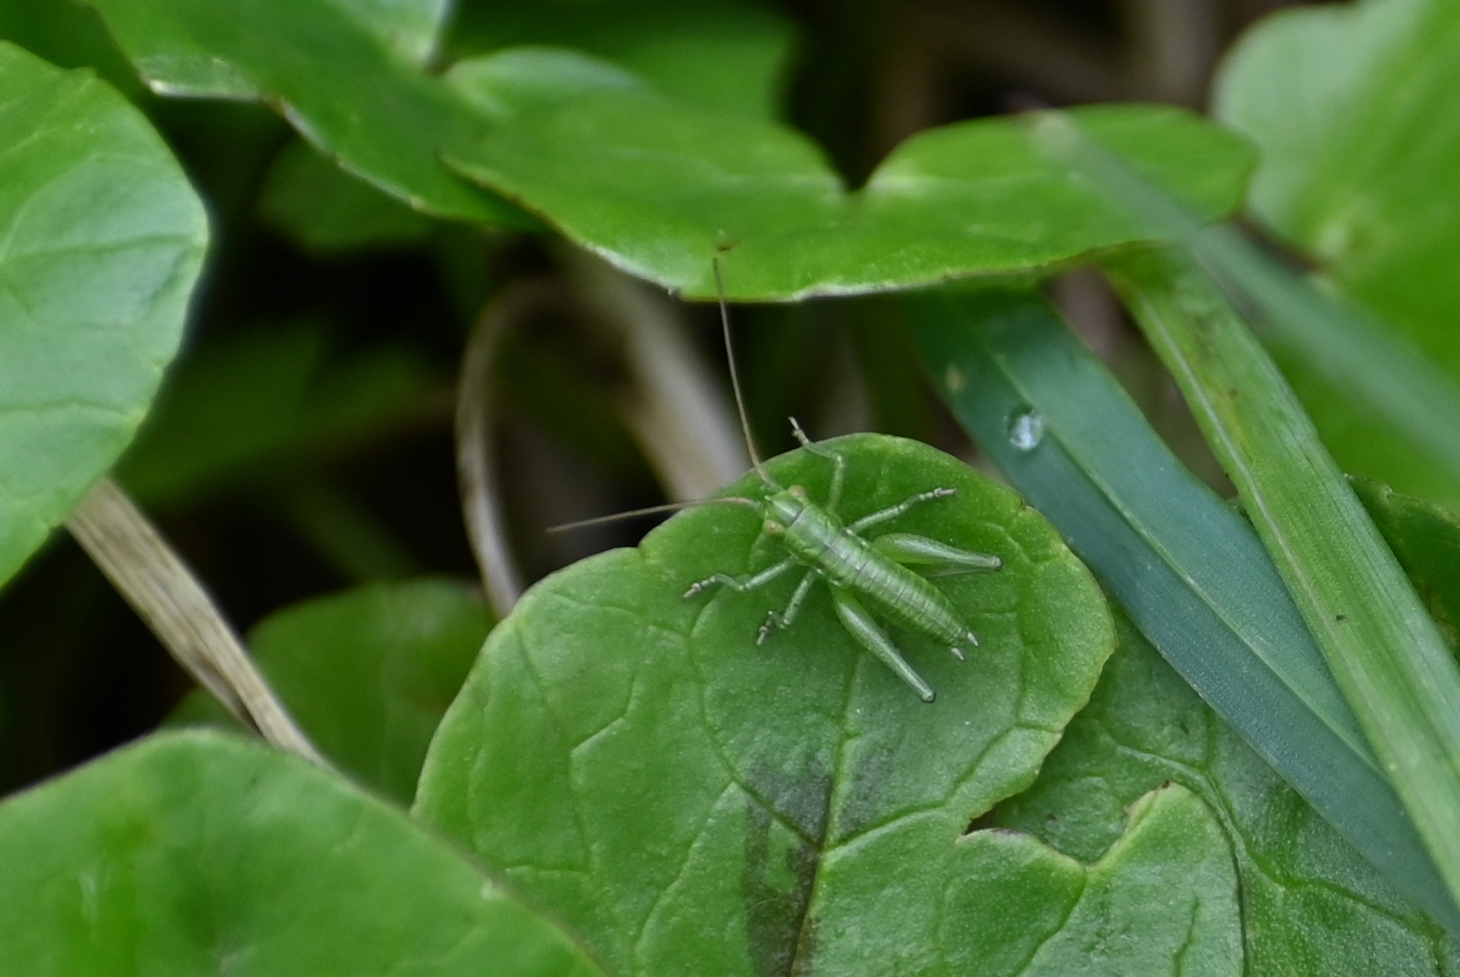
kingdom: Animalia
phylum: Arthropoda
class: Insecta
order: Orthoptera
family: Tettigoniidae
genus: Tettigonia
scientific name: Tettigonia viridissima
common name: Great green bush-cricket
